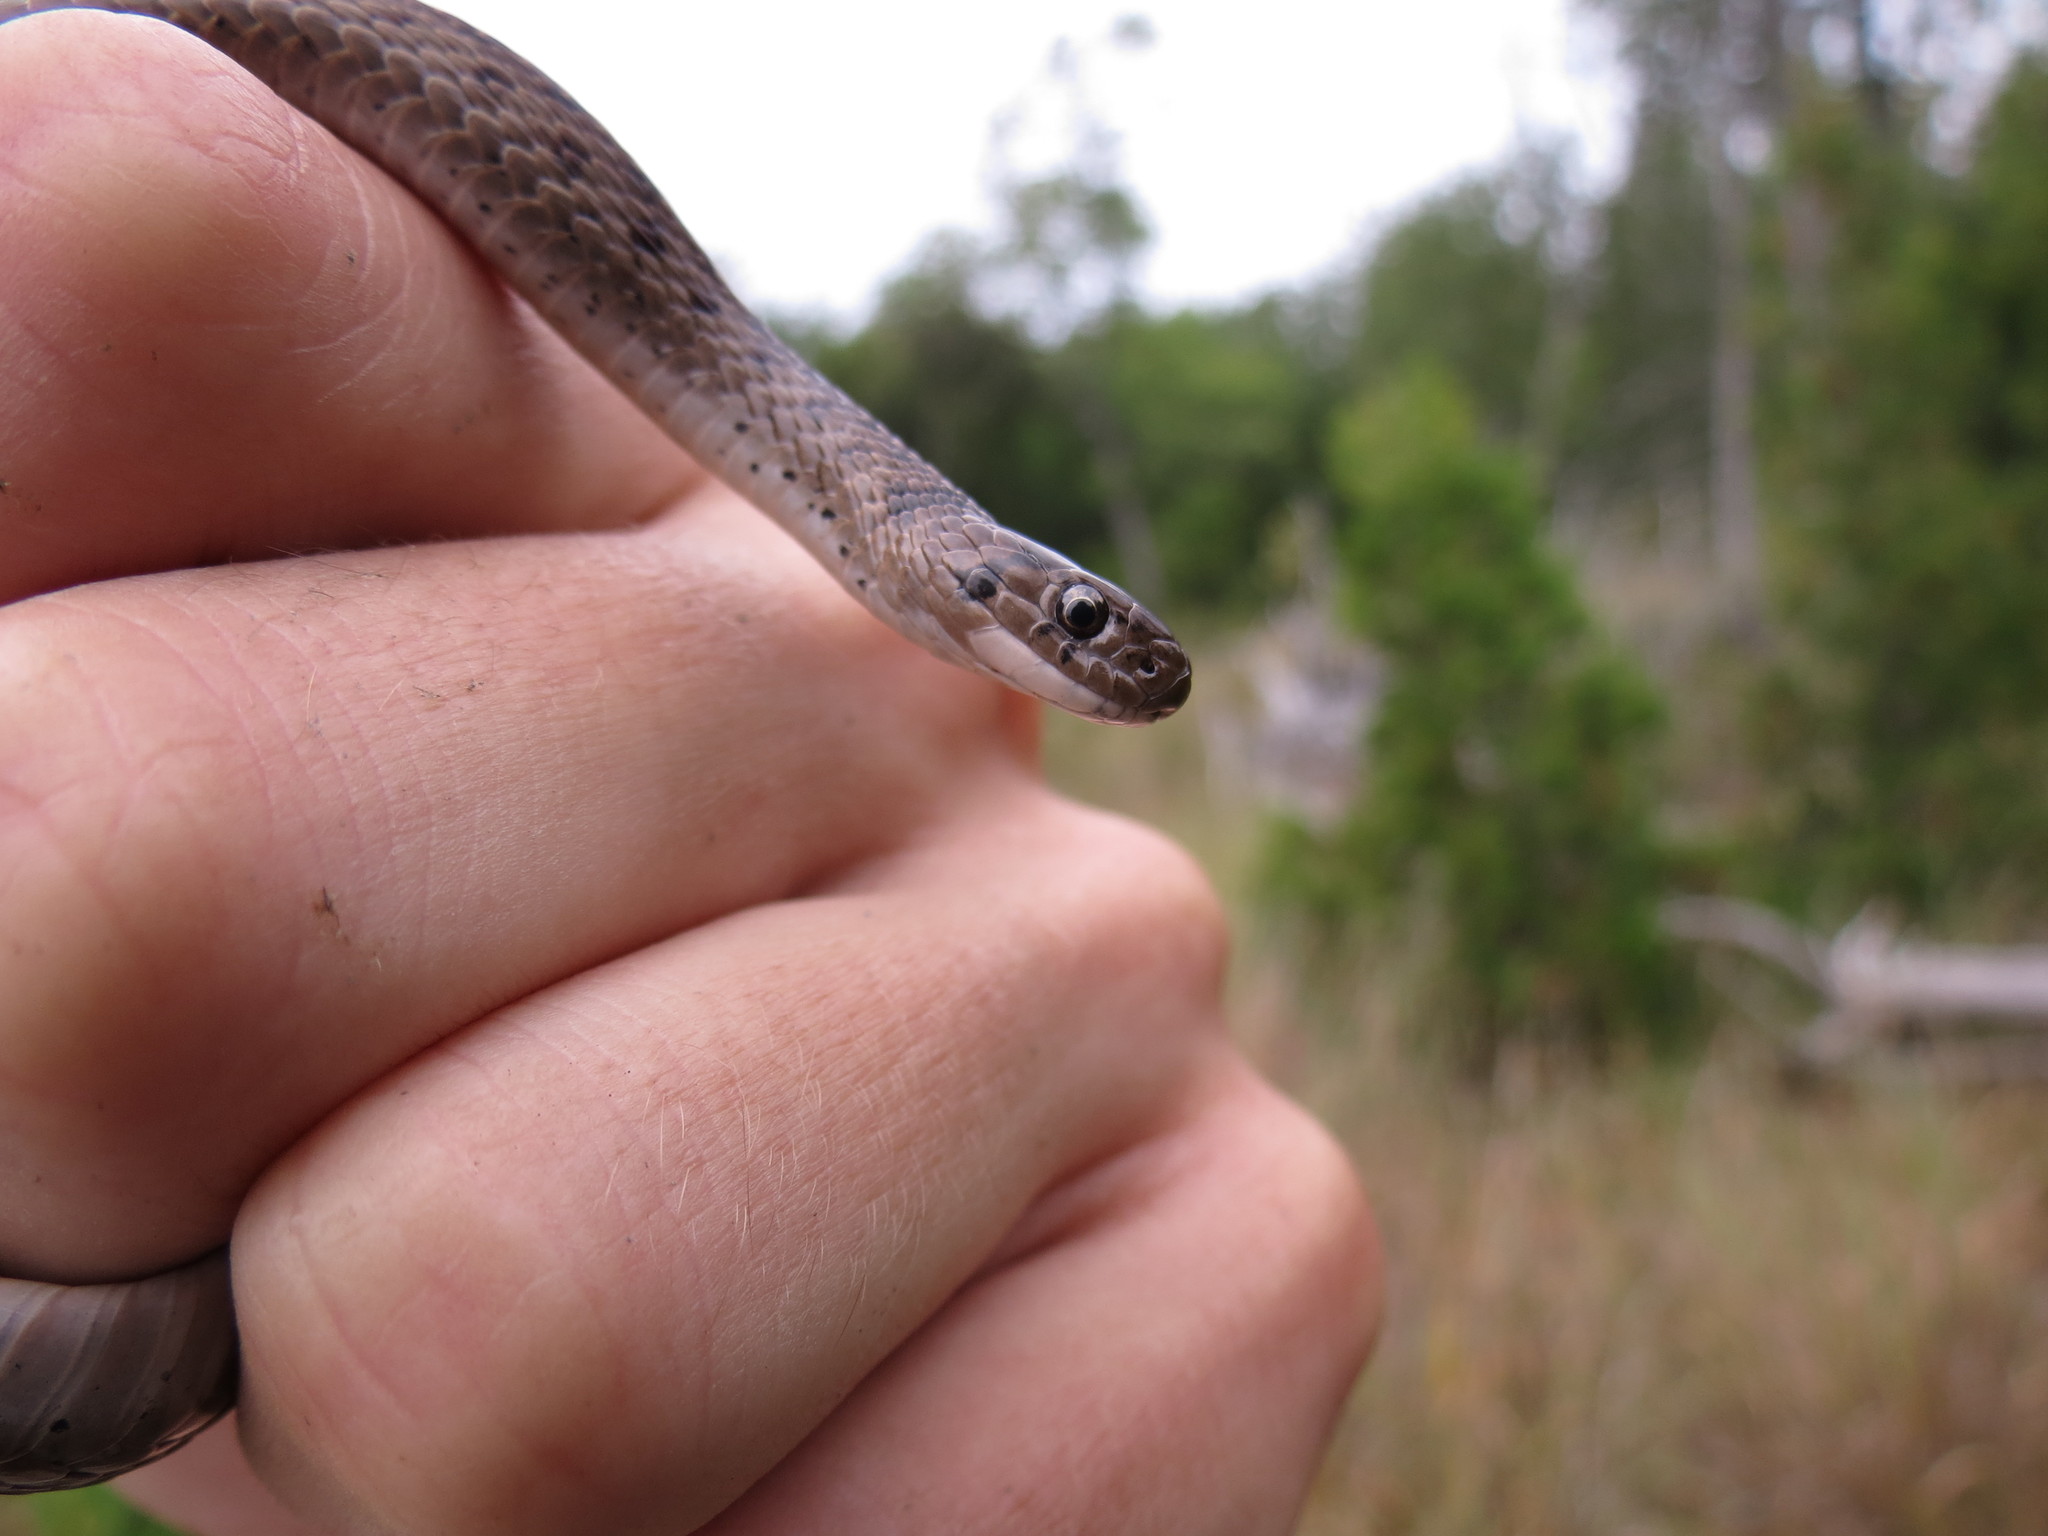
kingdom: Animalia
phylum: Chordata
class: Squamata
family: Colubridae
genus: Storeria
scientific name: Storeria dekayi
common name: (dekay’s) brown snake
